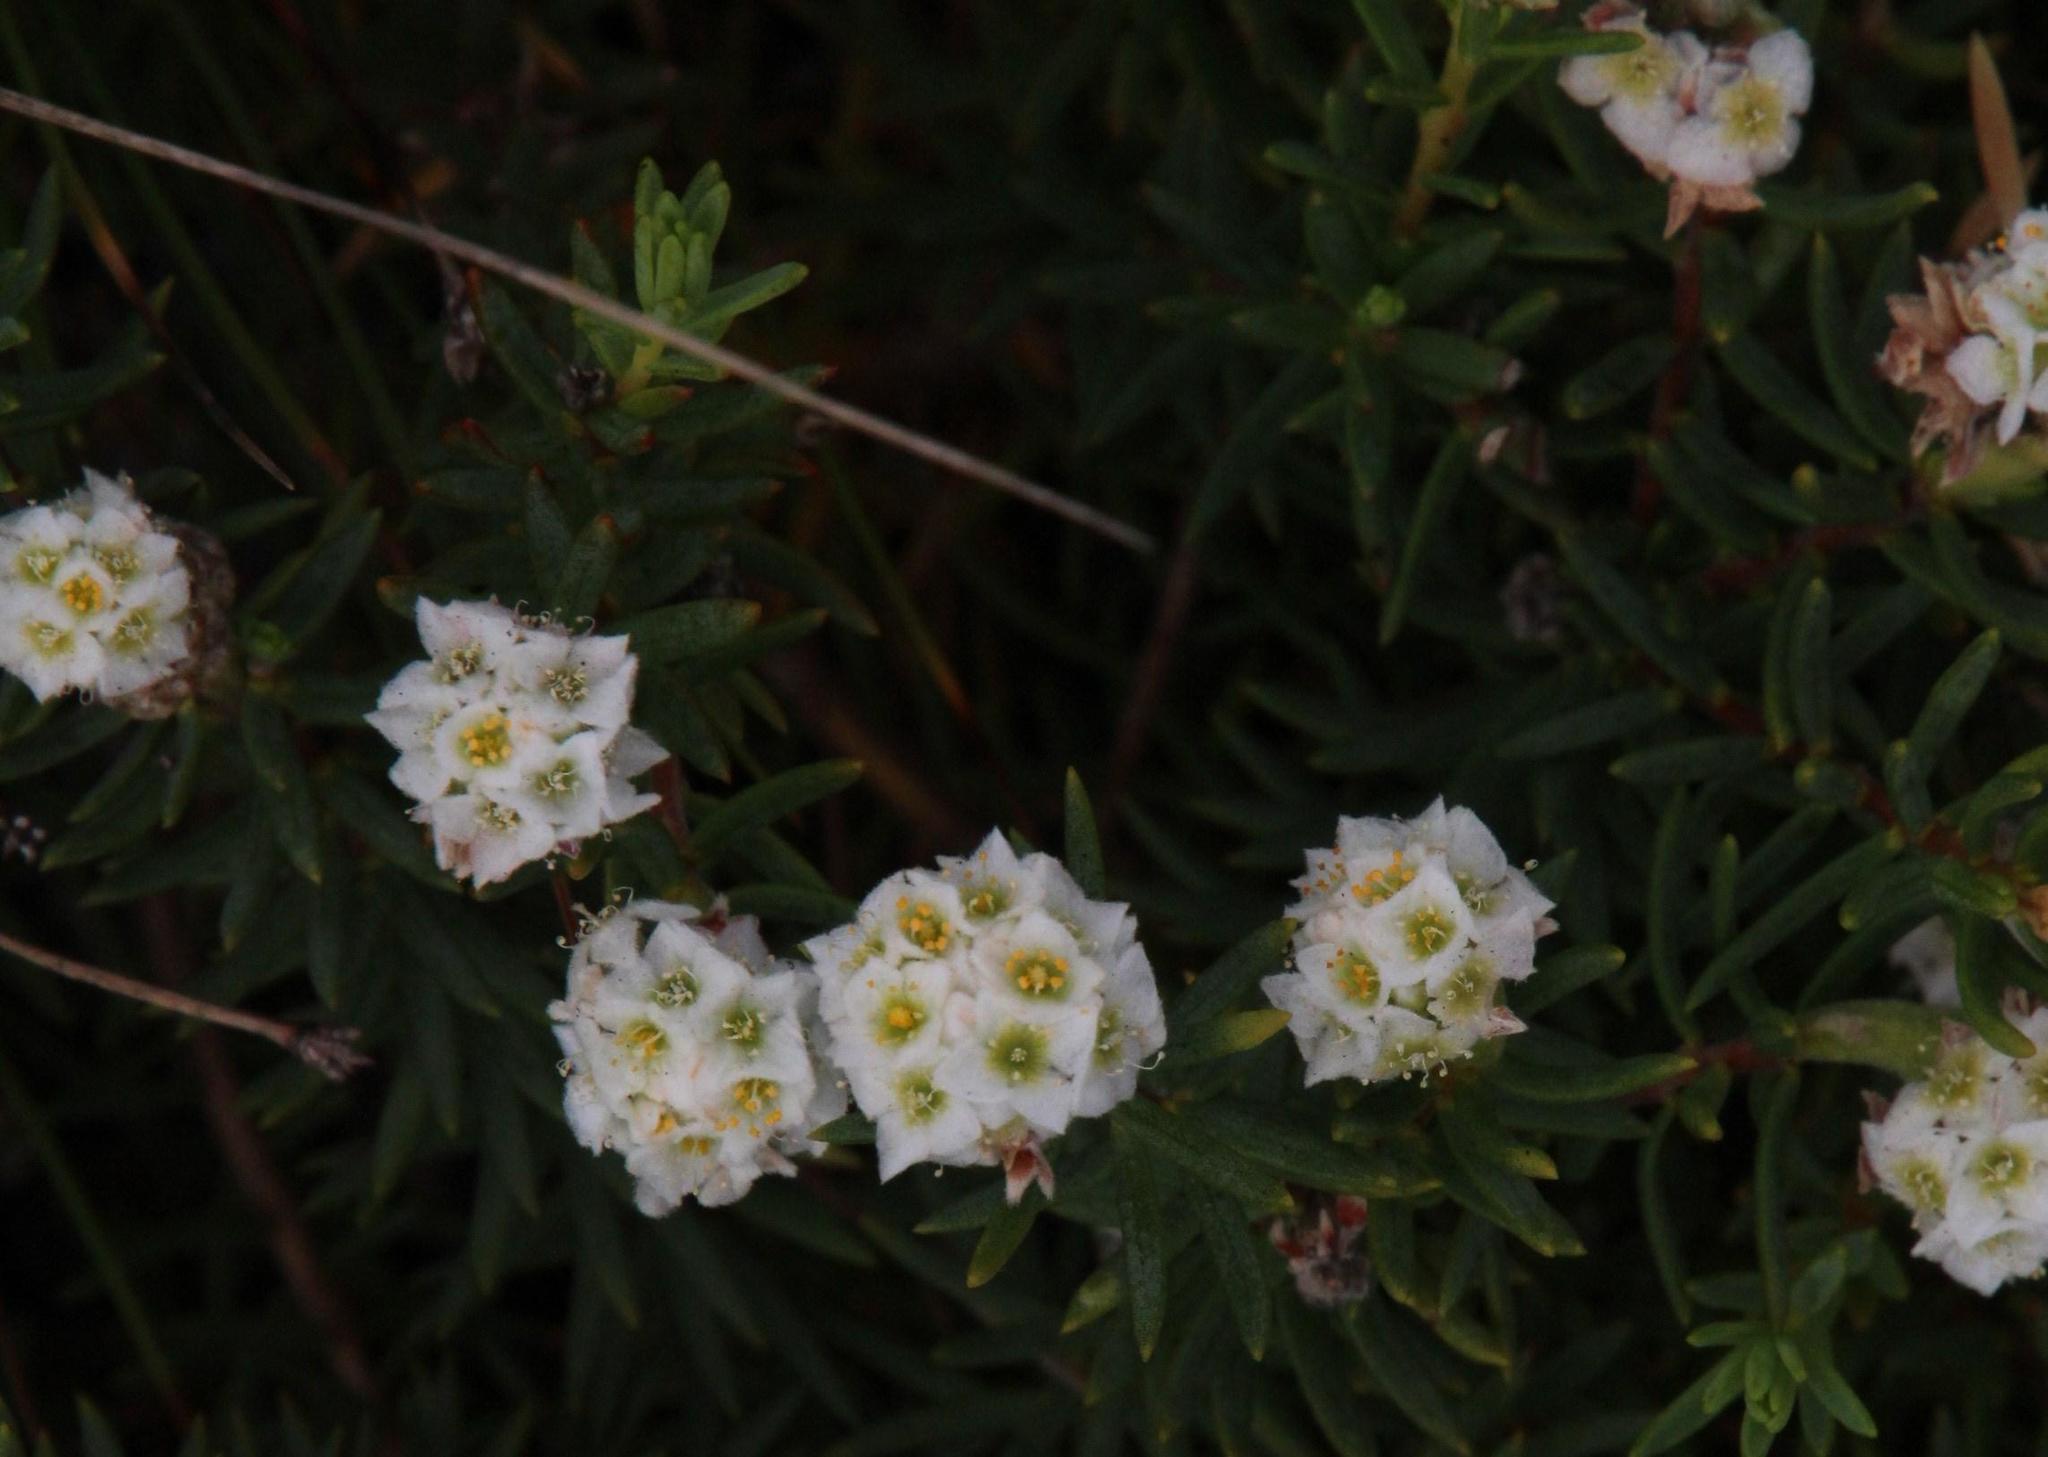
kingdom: Plantae
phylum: Tracheophyta
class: Magnoliopsida
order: Malvales
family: Thymelaeaceae
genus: Lachnaea
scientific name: Lachnaea densiflora
